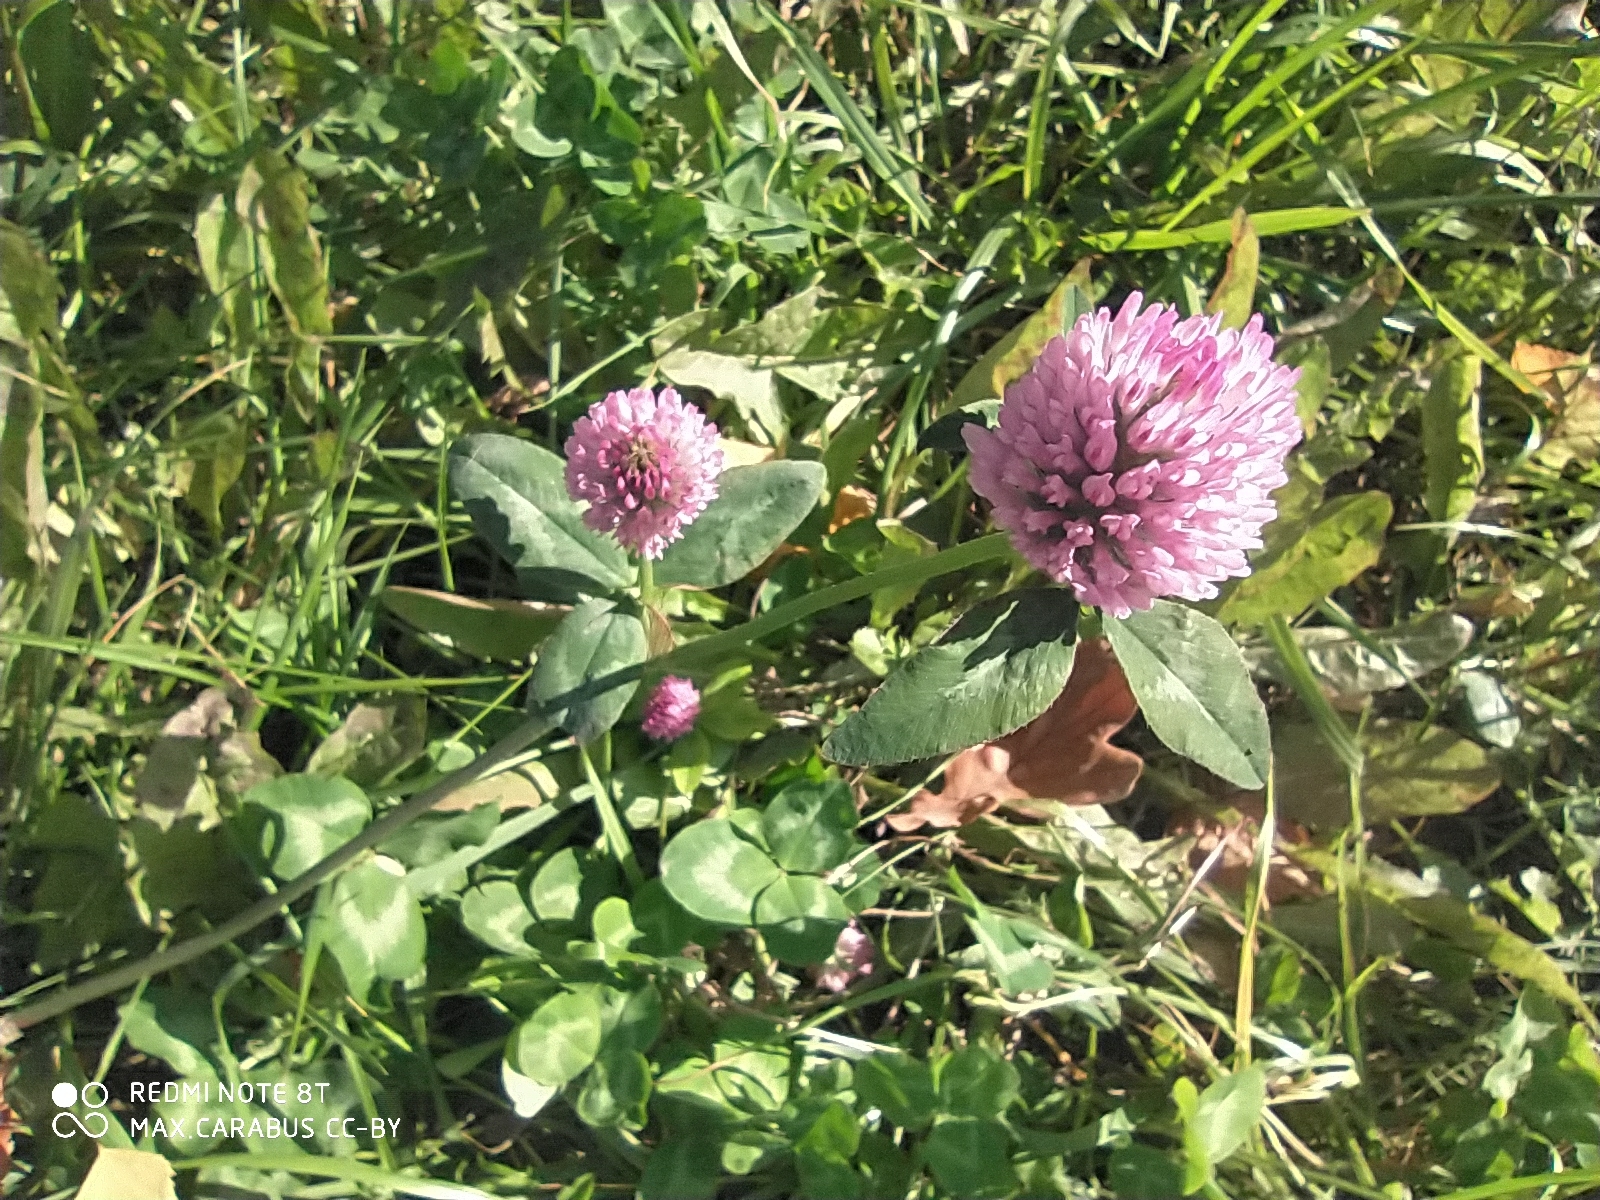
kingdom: Plantae
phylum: Tracheophyta
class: Magnoliopsida
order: Fabales
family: Fabaceae
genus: Trifolium
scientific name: Trifolium pratense
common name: Red clover
